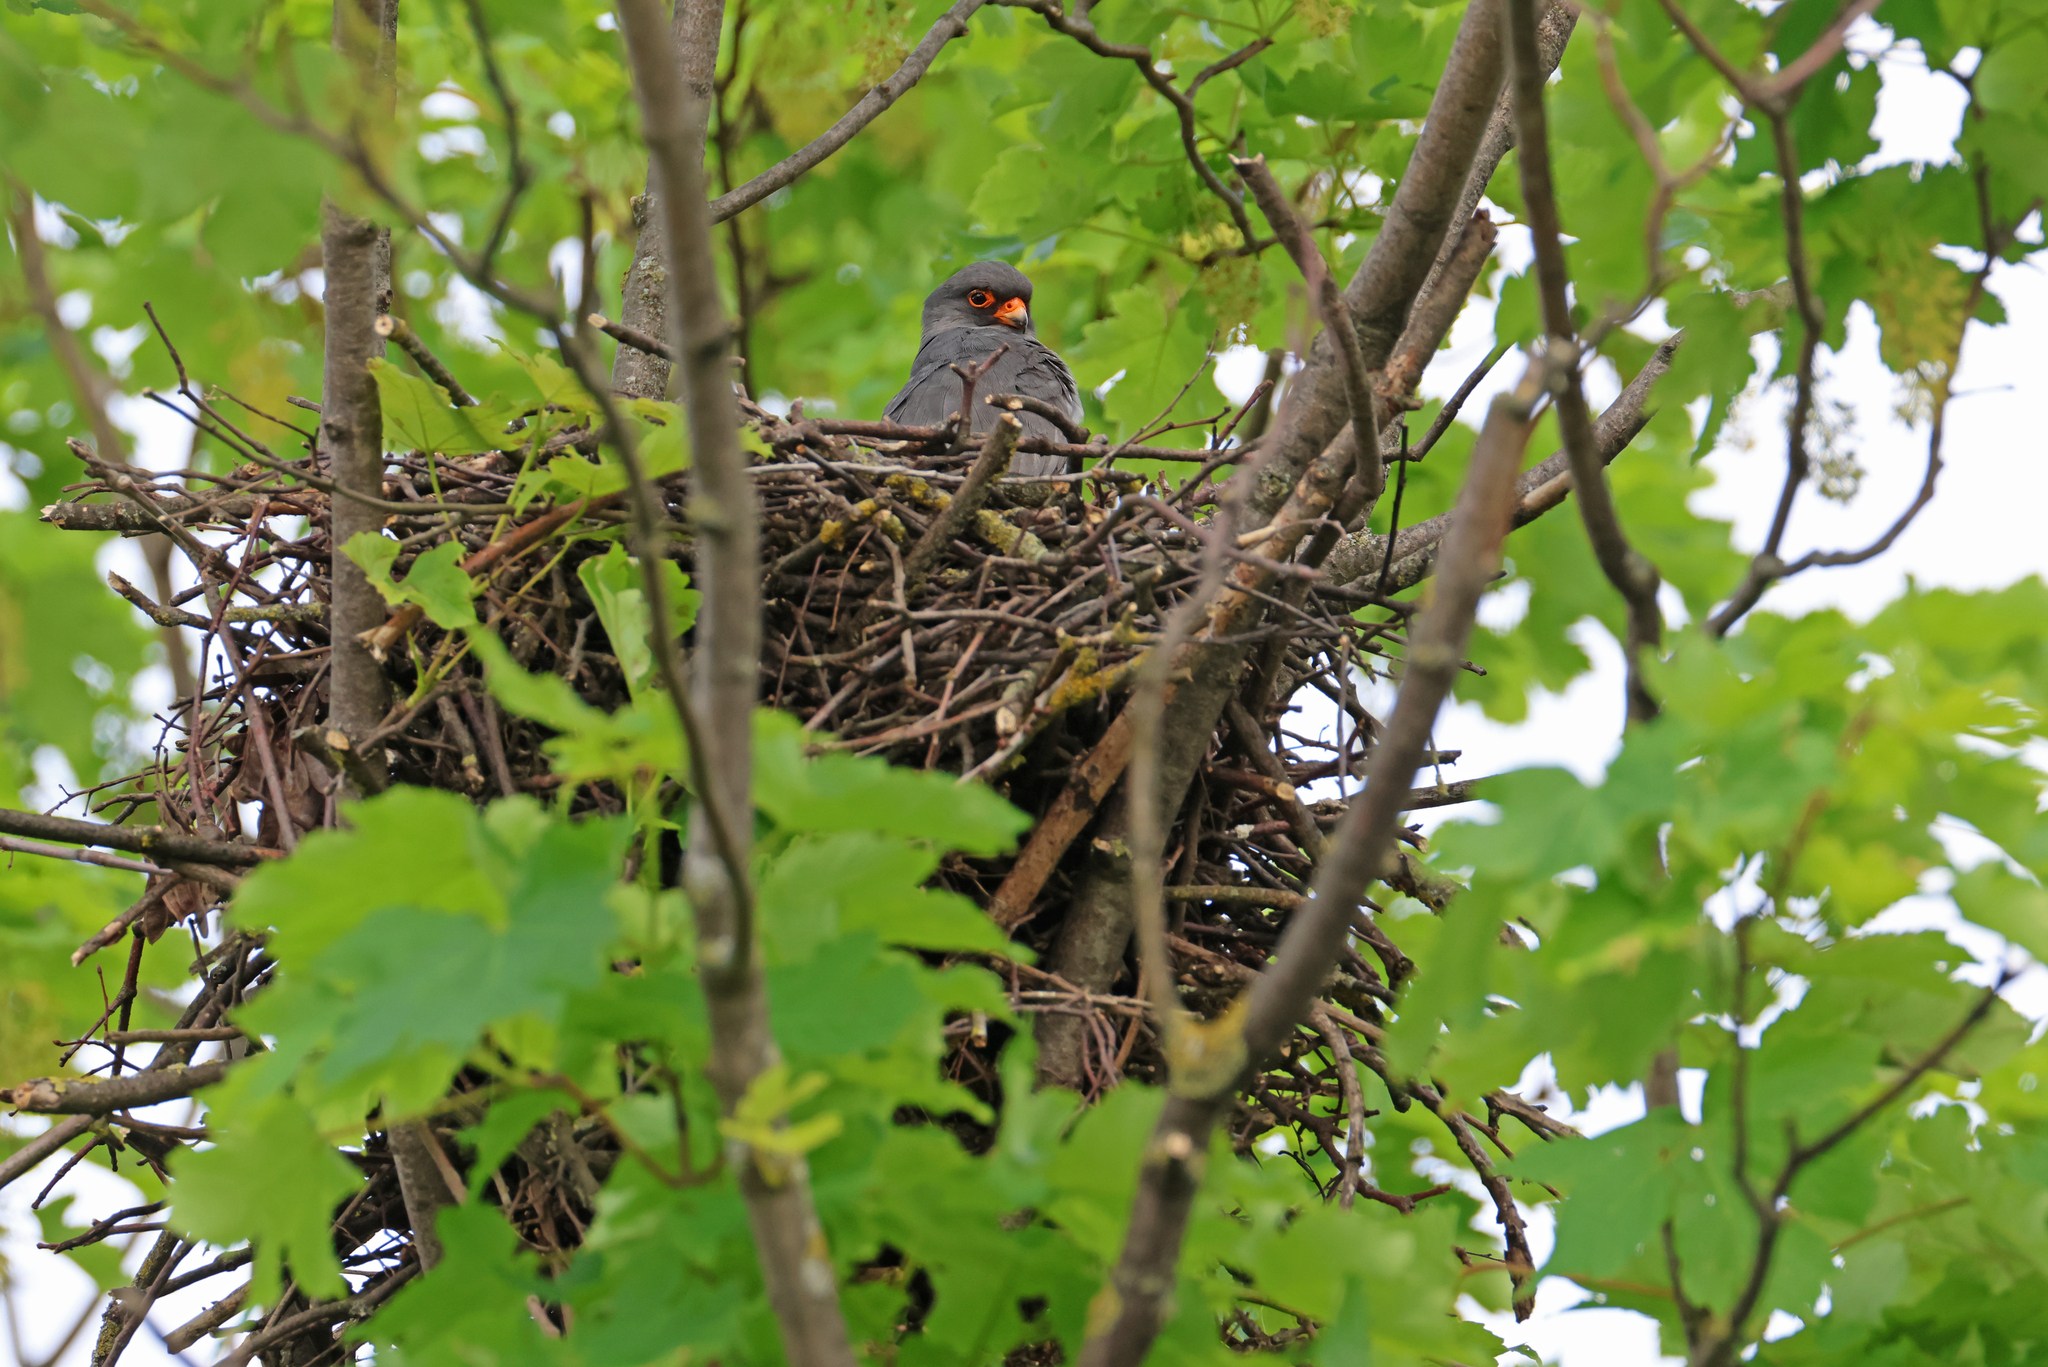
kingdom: Animalia
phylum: Chordata
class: Aves
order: Falconiformes
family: Falconidae
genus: Falco
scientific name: Falco vespertinus
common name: Red-footed falcon
